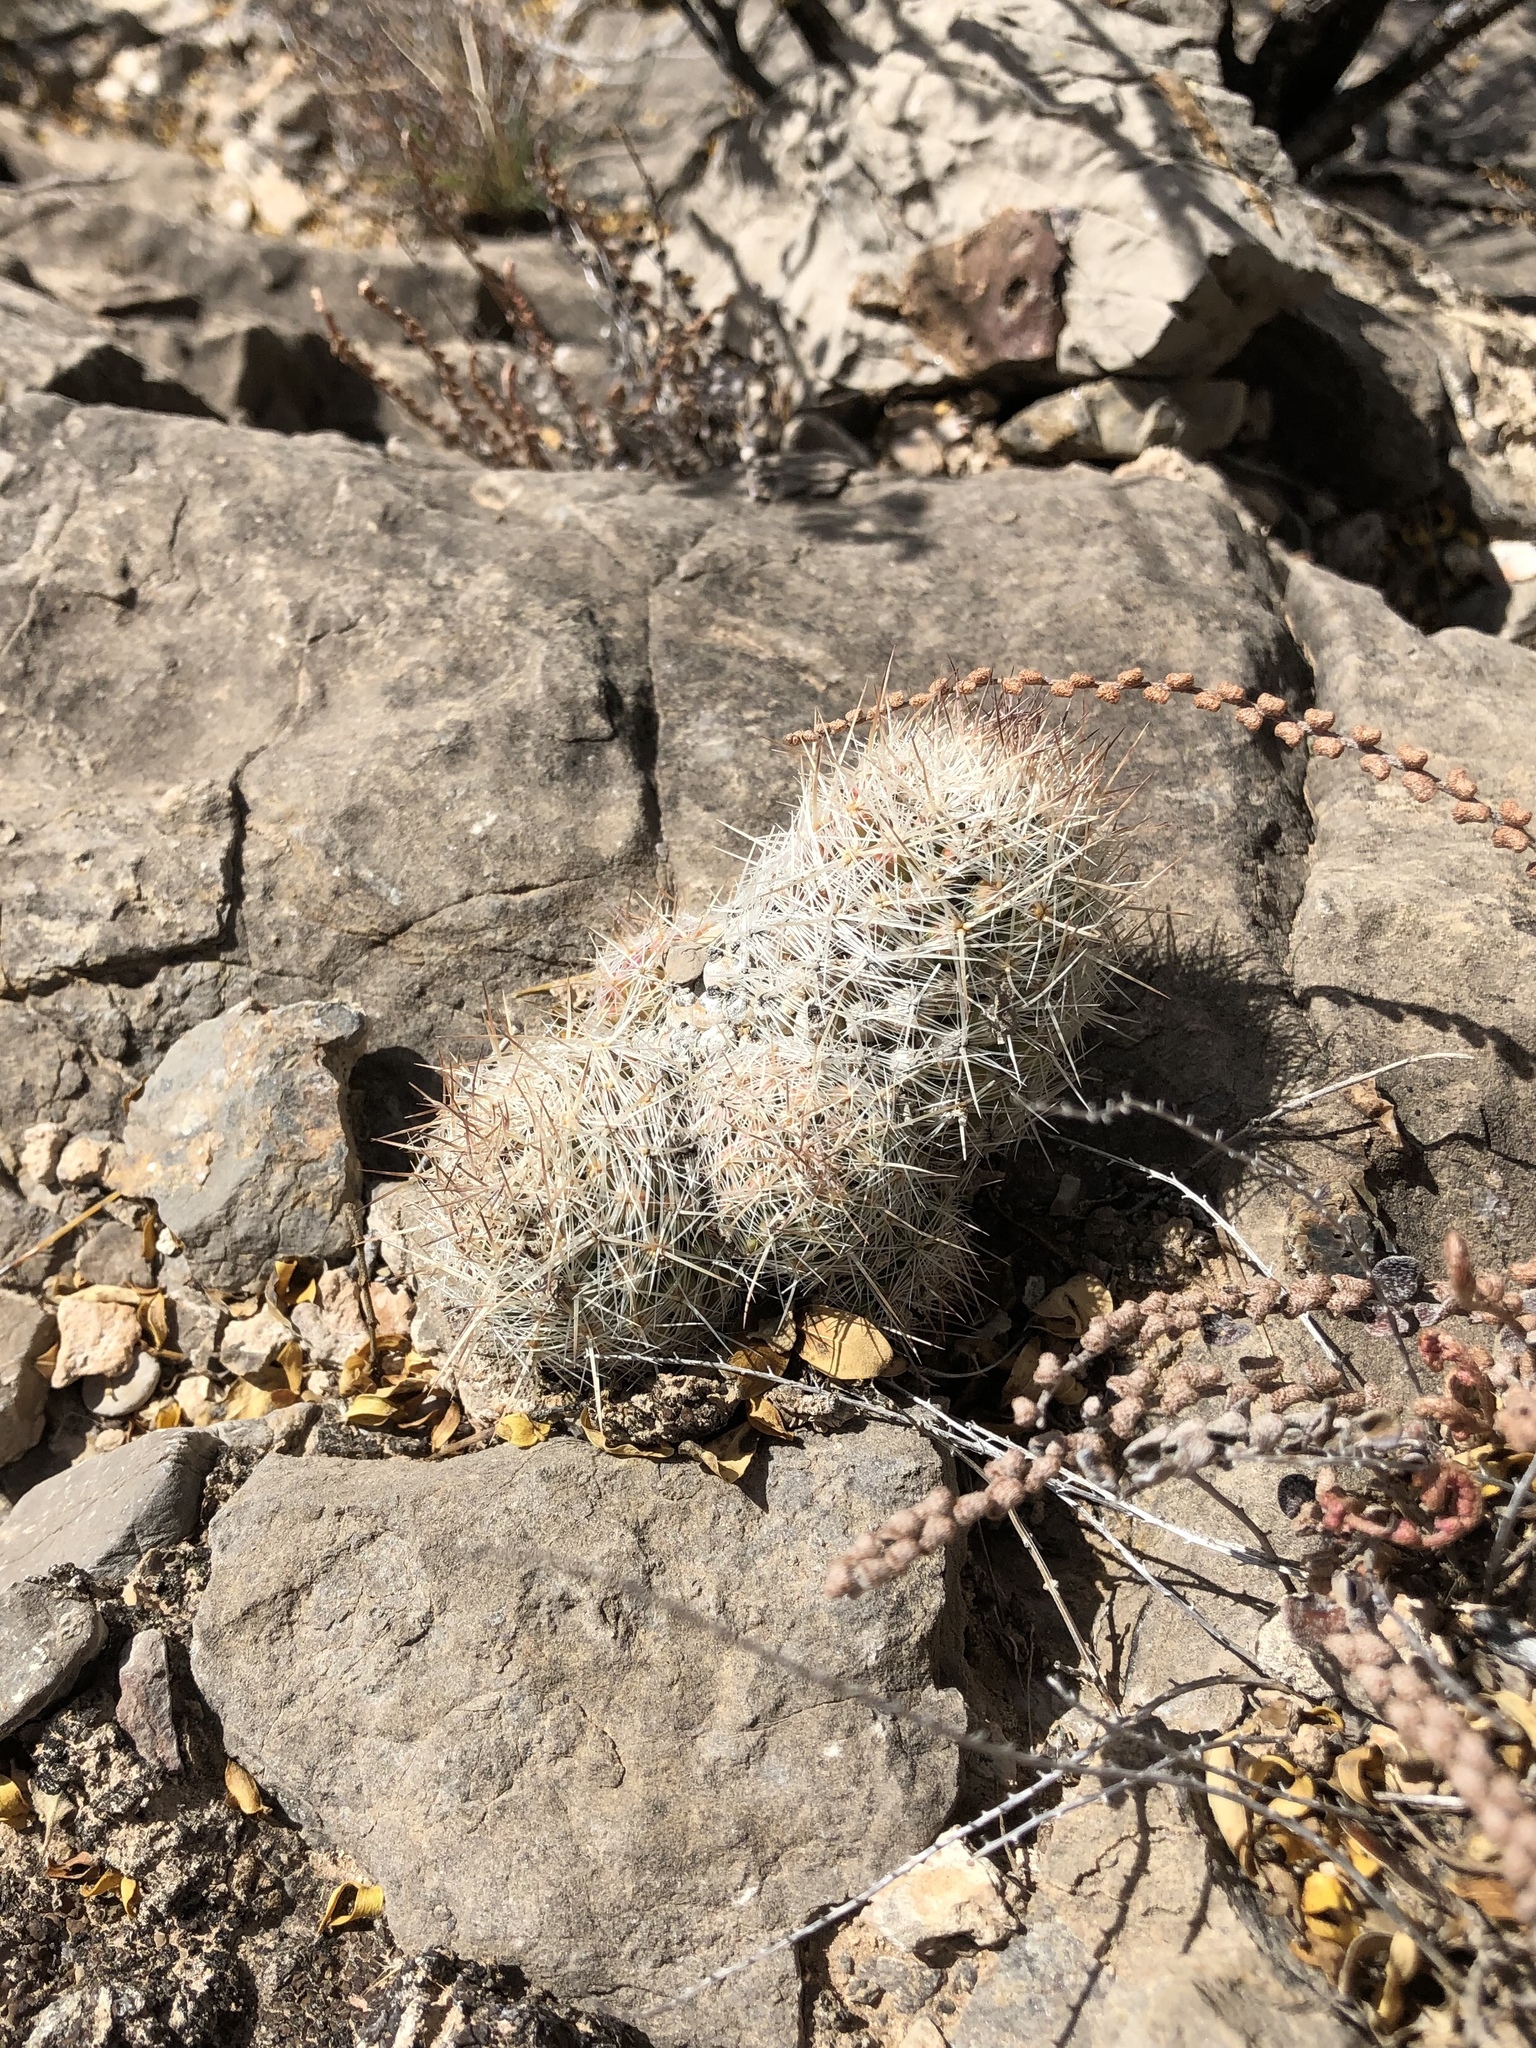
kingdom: Plantae
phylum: Tracheophyta
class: Magnoliopsida
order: Caryophyllales
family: Cactaceae
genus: Pelecyphora
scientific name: Pelecyphora tuberculosa
